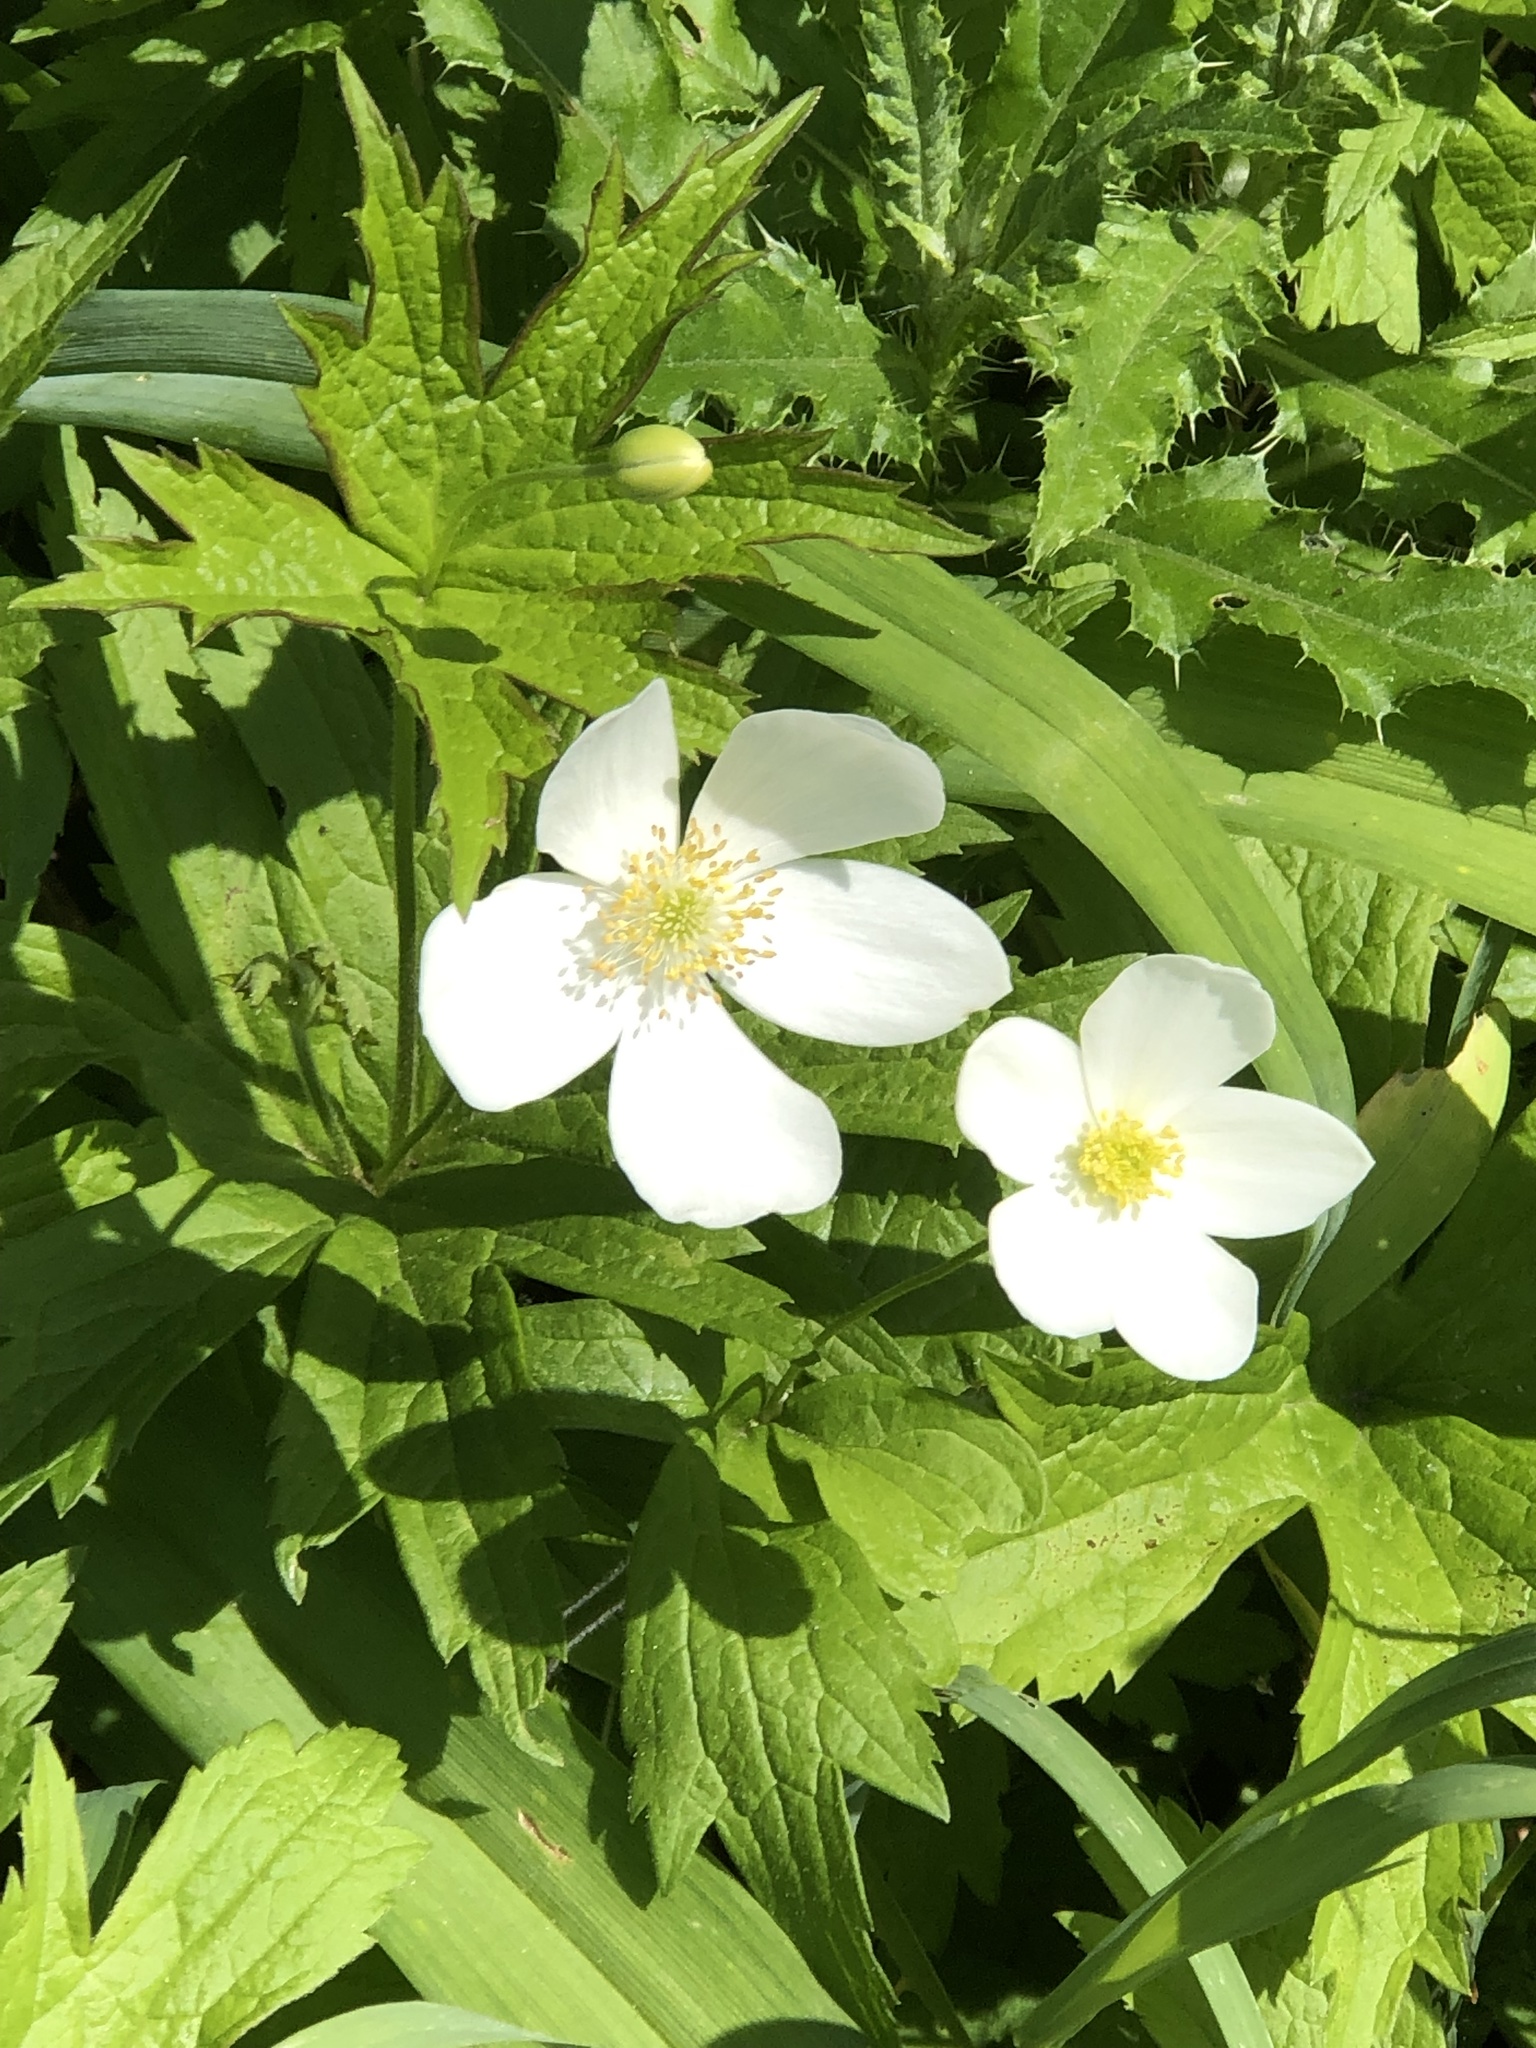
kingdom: Plantae
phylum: Tracheophyta
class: Magnoliopsida
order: Ranunculales
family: Ranunculaceae
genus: Anemonastrum
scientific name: Anemonastrum canadense
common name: Canada anemone
